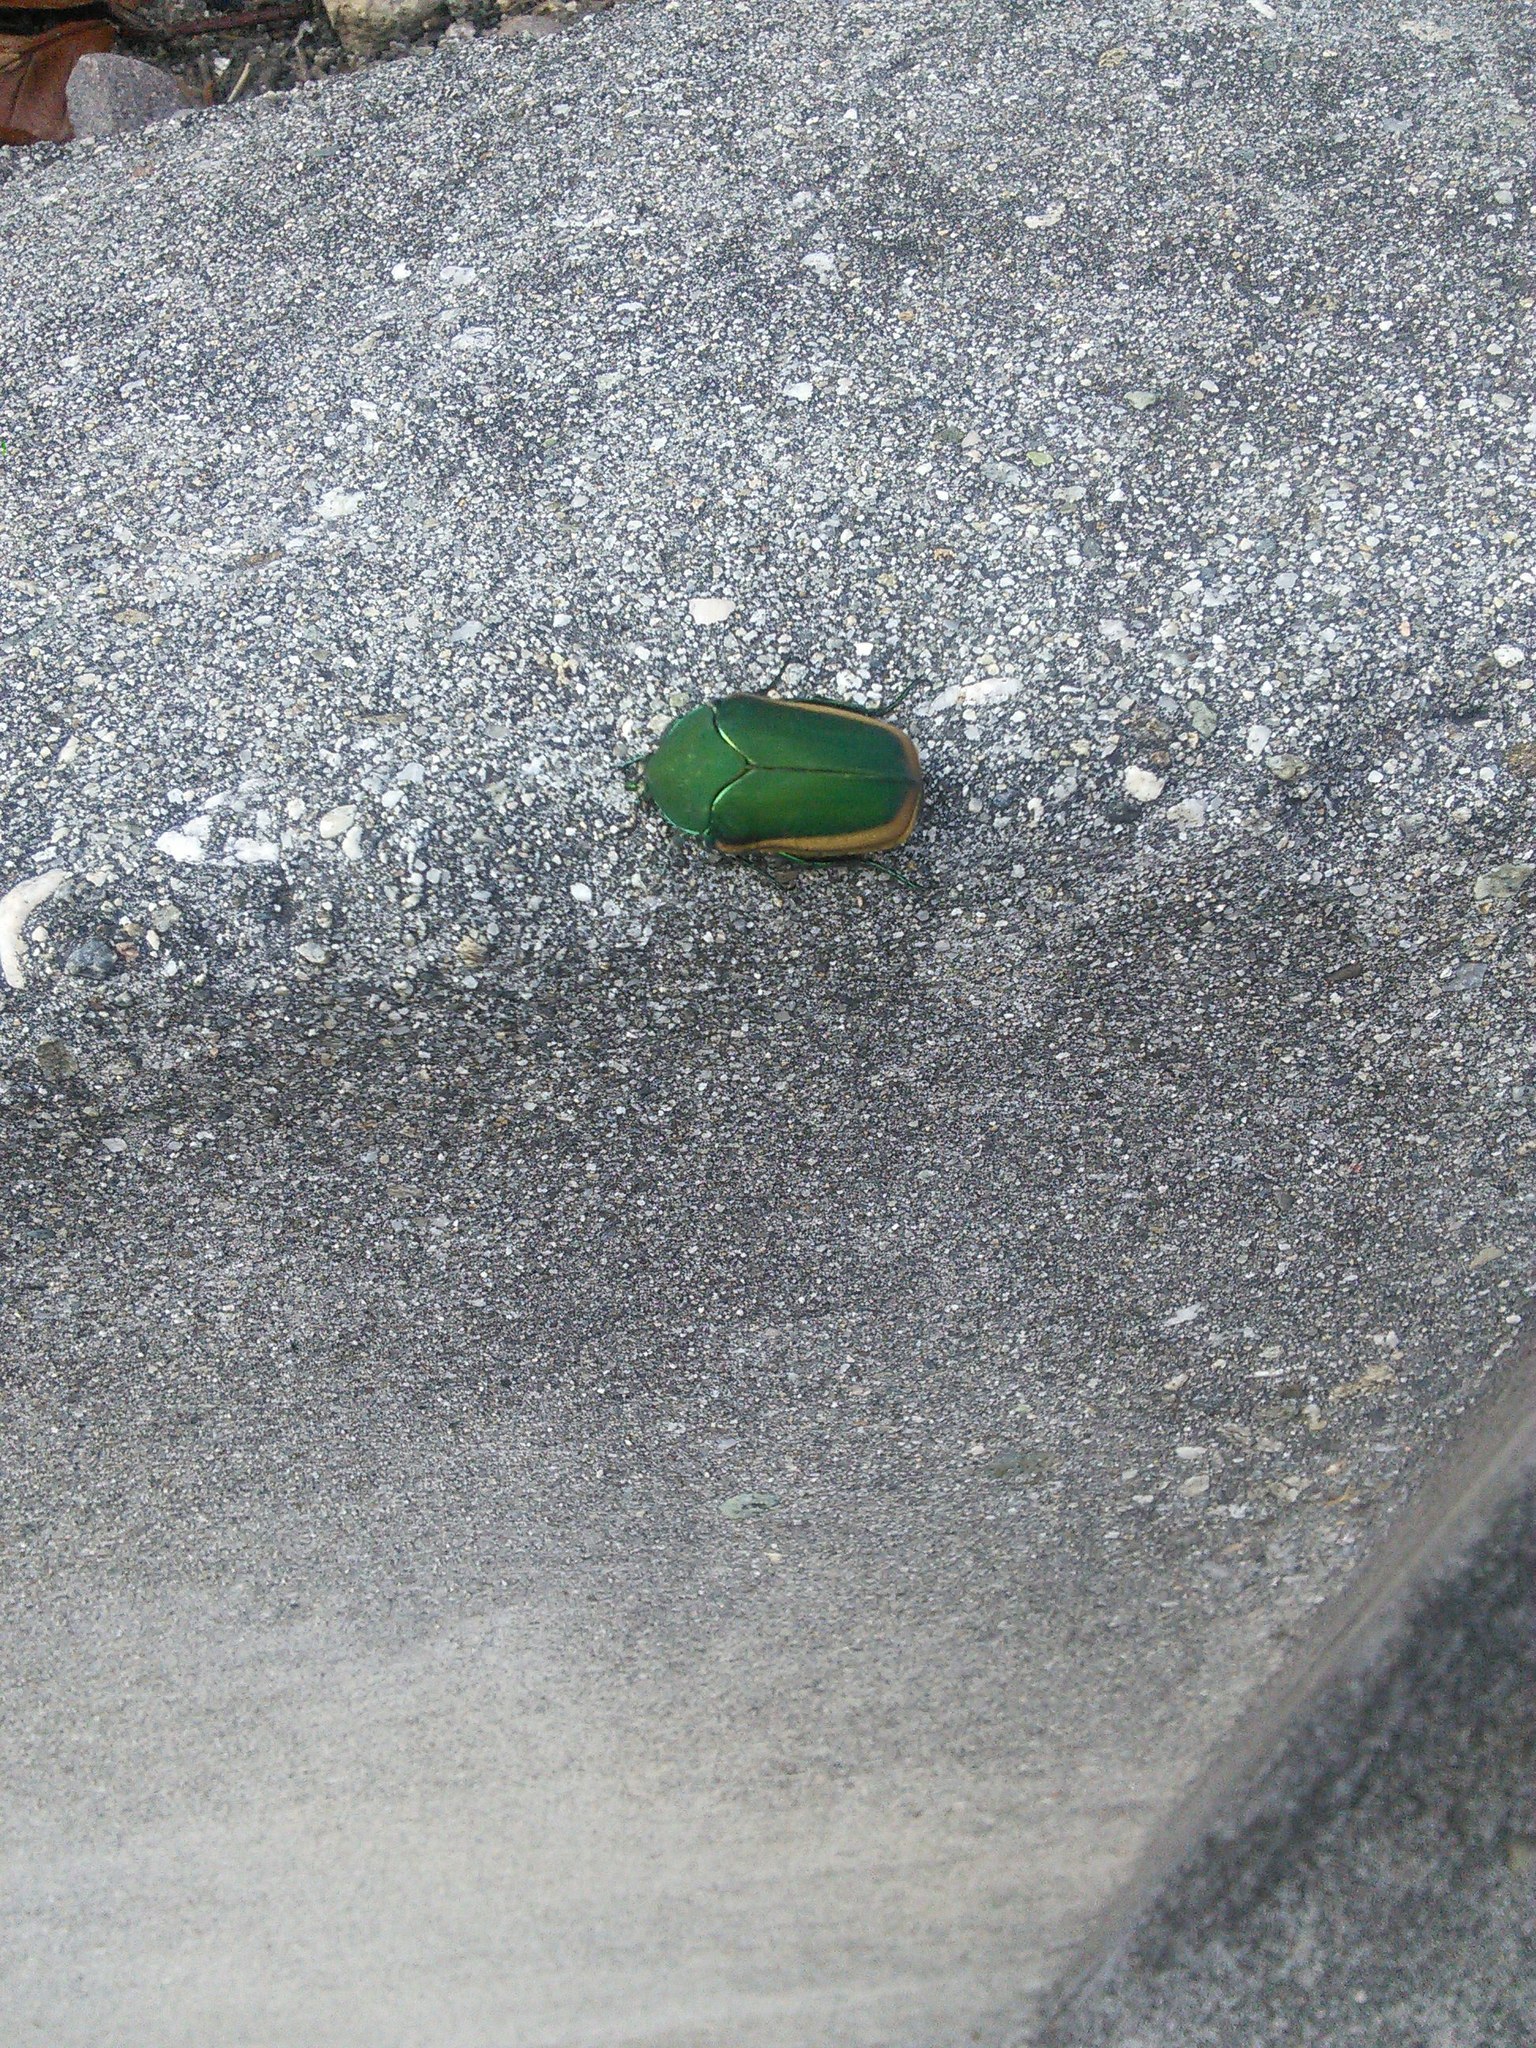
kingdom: Animalia
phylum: Arthropoda
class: Insecta
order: Coleoptera
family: Scarabaeidae
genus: Cotinis
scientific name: Cotinis mutabilis
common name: Figeater beetle
